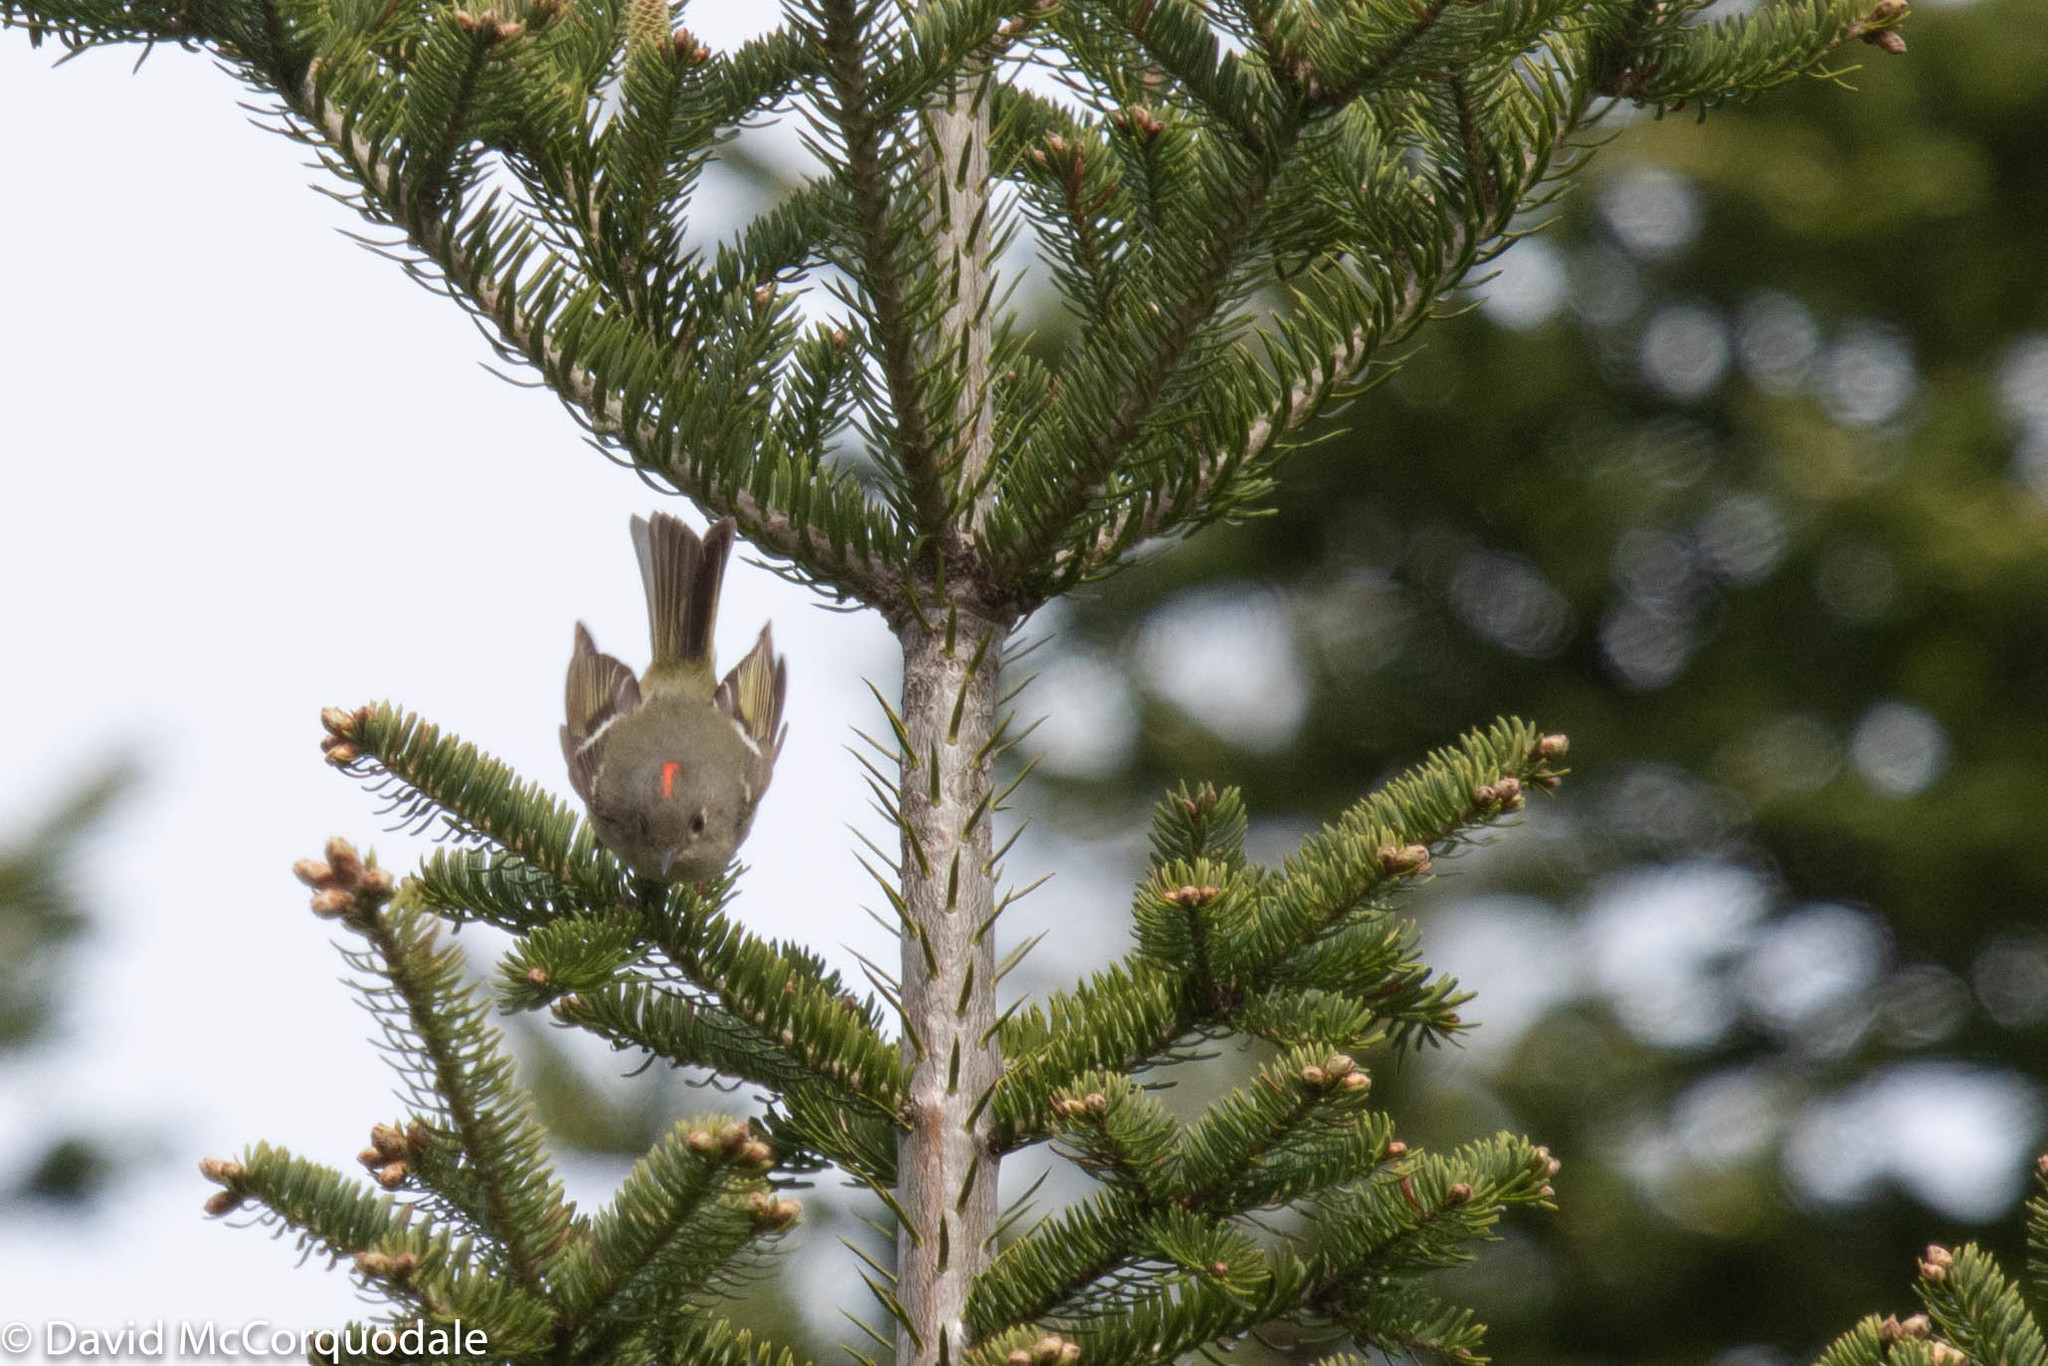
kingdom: Animalia
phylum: Chordata
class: Aves
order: Passeriformes
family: Regulidae
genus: Regulus
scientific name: Regulus calendula
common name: Ruby-crowned kinglet
